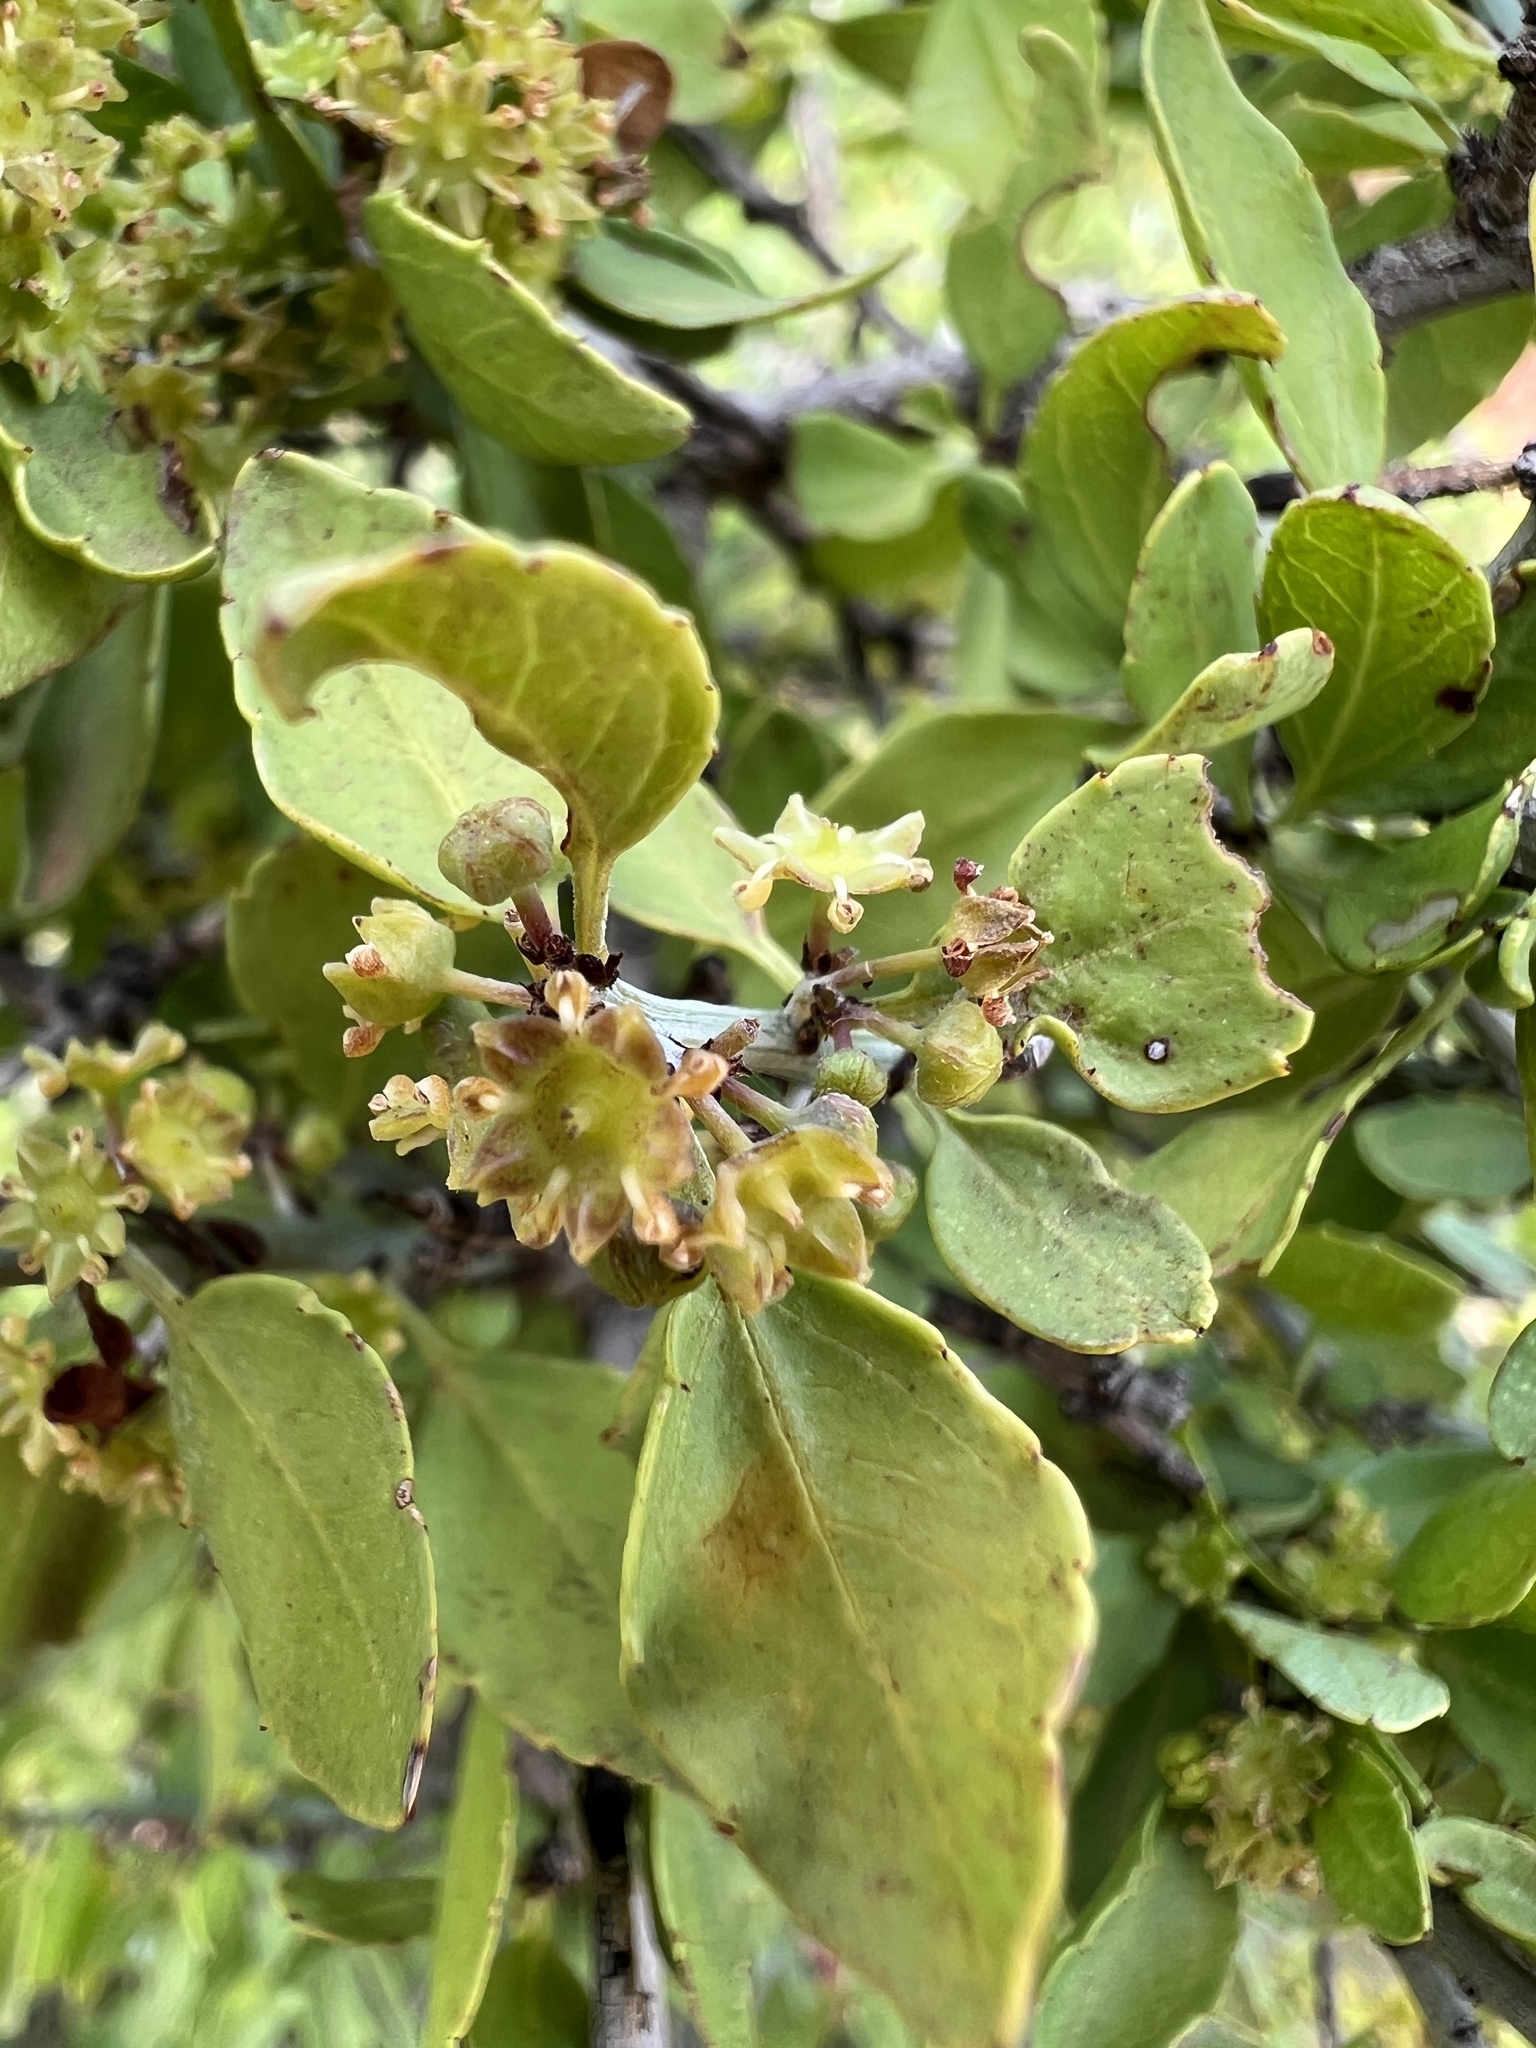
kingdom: Plantae
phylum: Tracheophyta
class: Magnoliopsida
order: Rosales
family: Rhamnaceae
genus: Sarcomphalus
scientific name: Sarcomphalus obtusifolius
